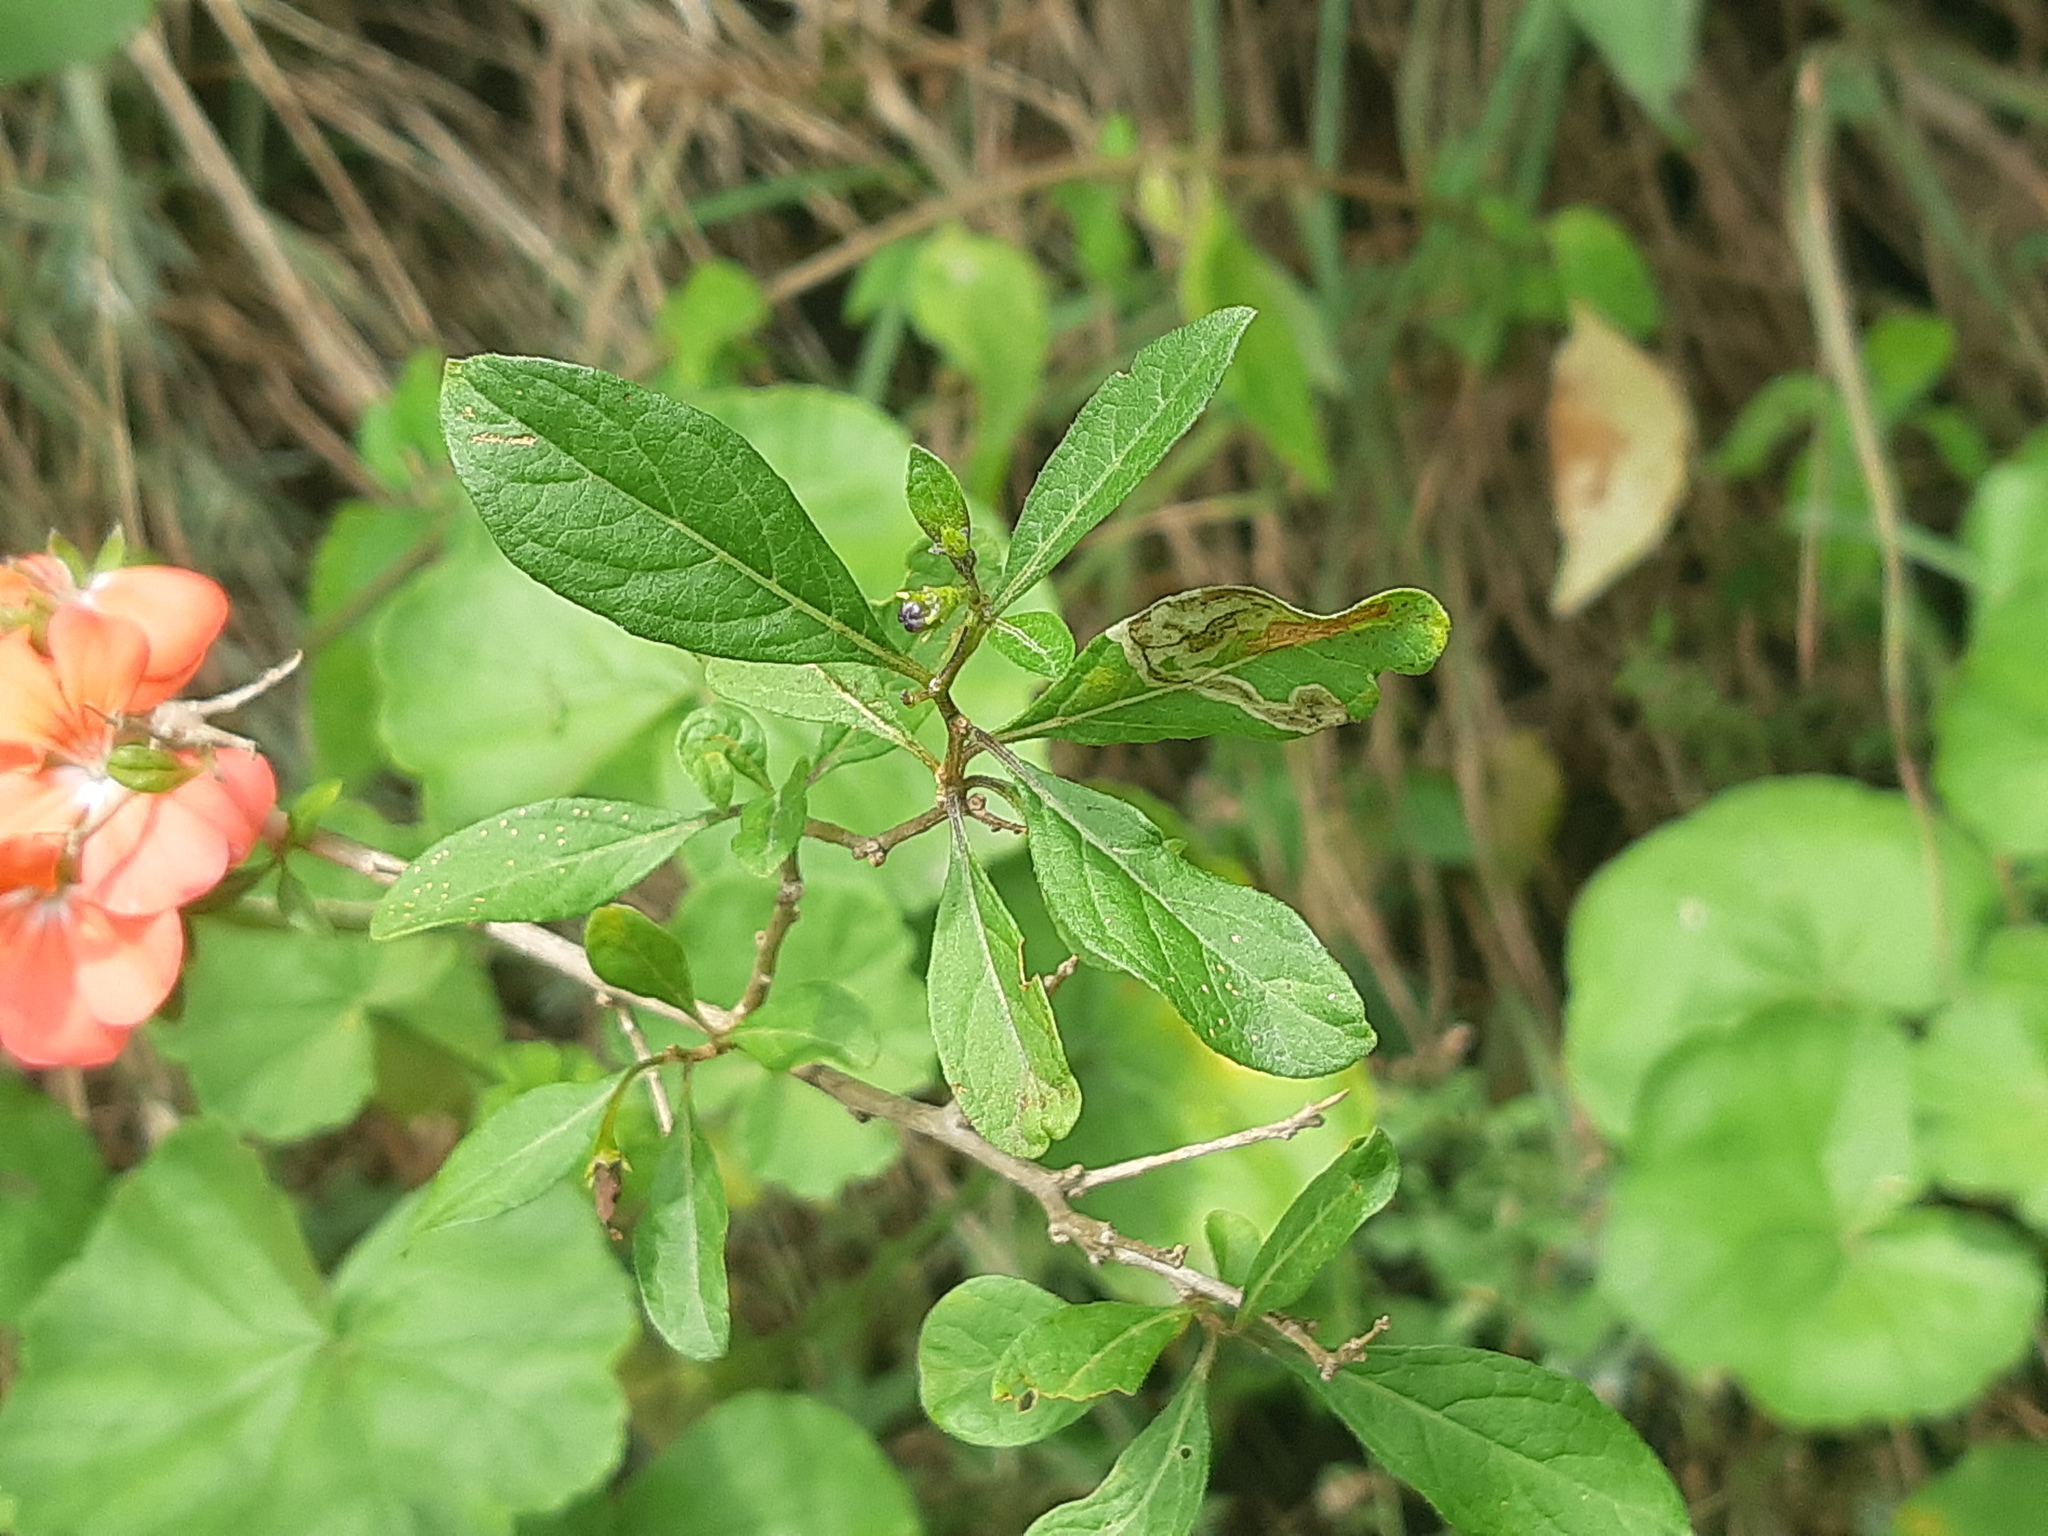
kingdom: Plantae
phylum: Tracheophyta
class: Magnoliopsida
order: Geraniales
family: Geraniaceae
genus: Pelargonium
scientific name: Pelargonium hybridum
